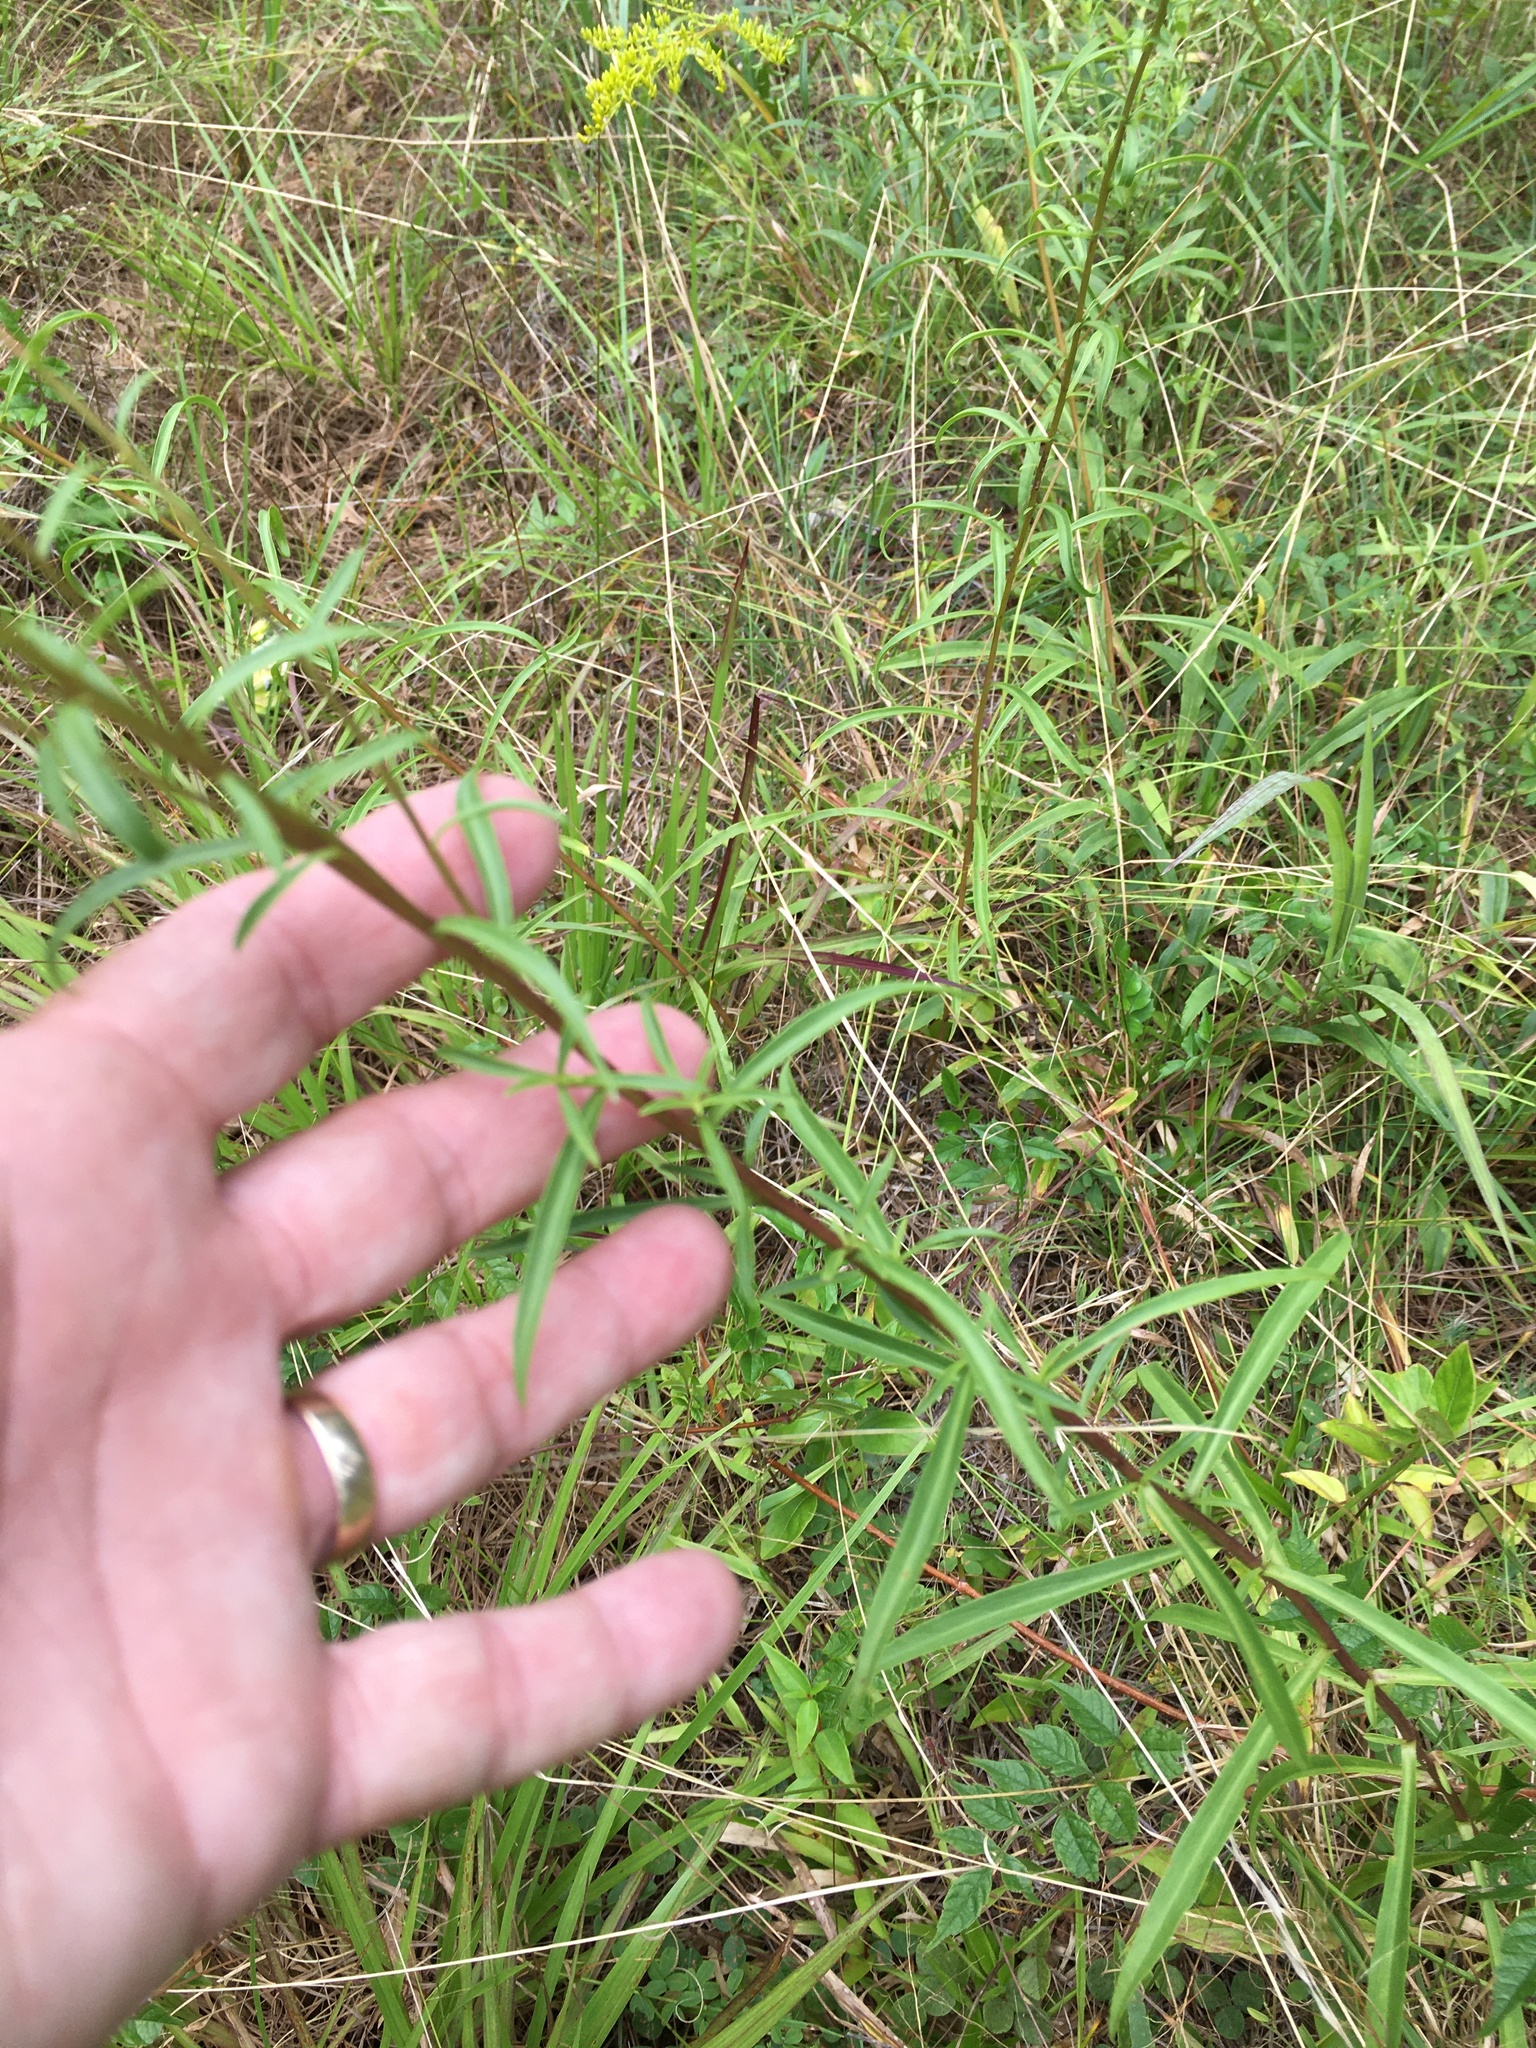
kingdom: Plantae
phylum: Tracheophyta
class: Magnoliopsida
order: Asterales
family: Asteraceae
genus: Solidago
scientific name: Solidago pinetorum
